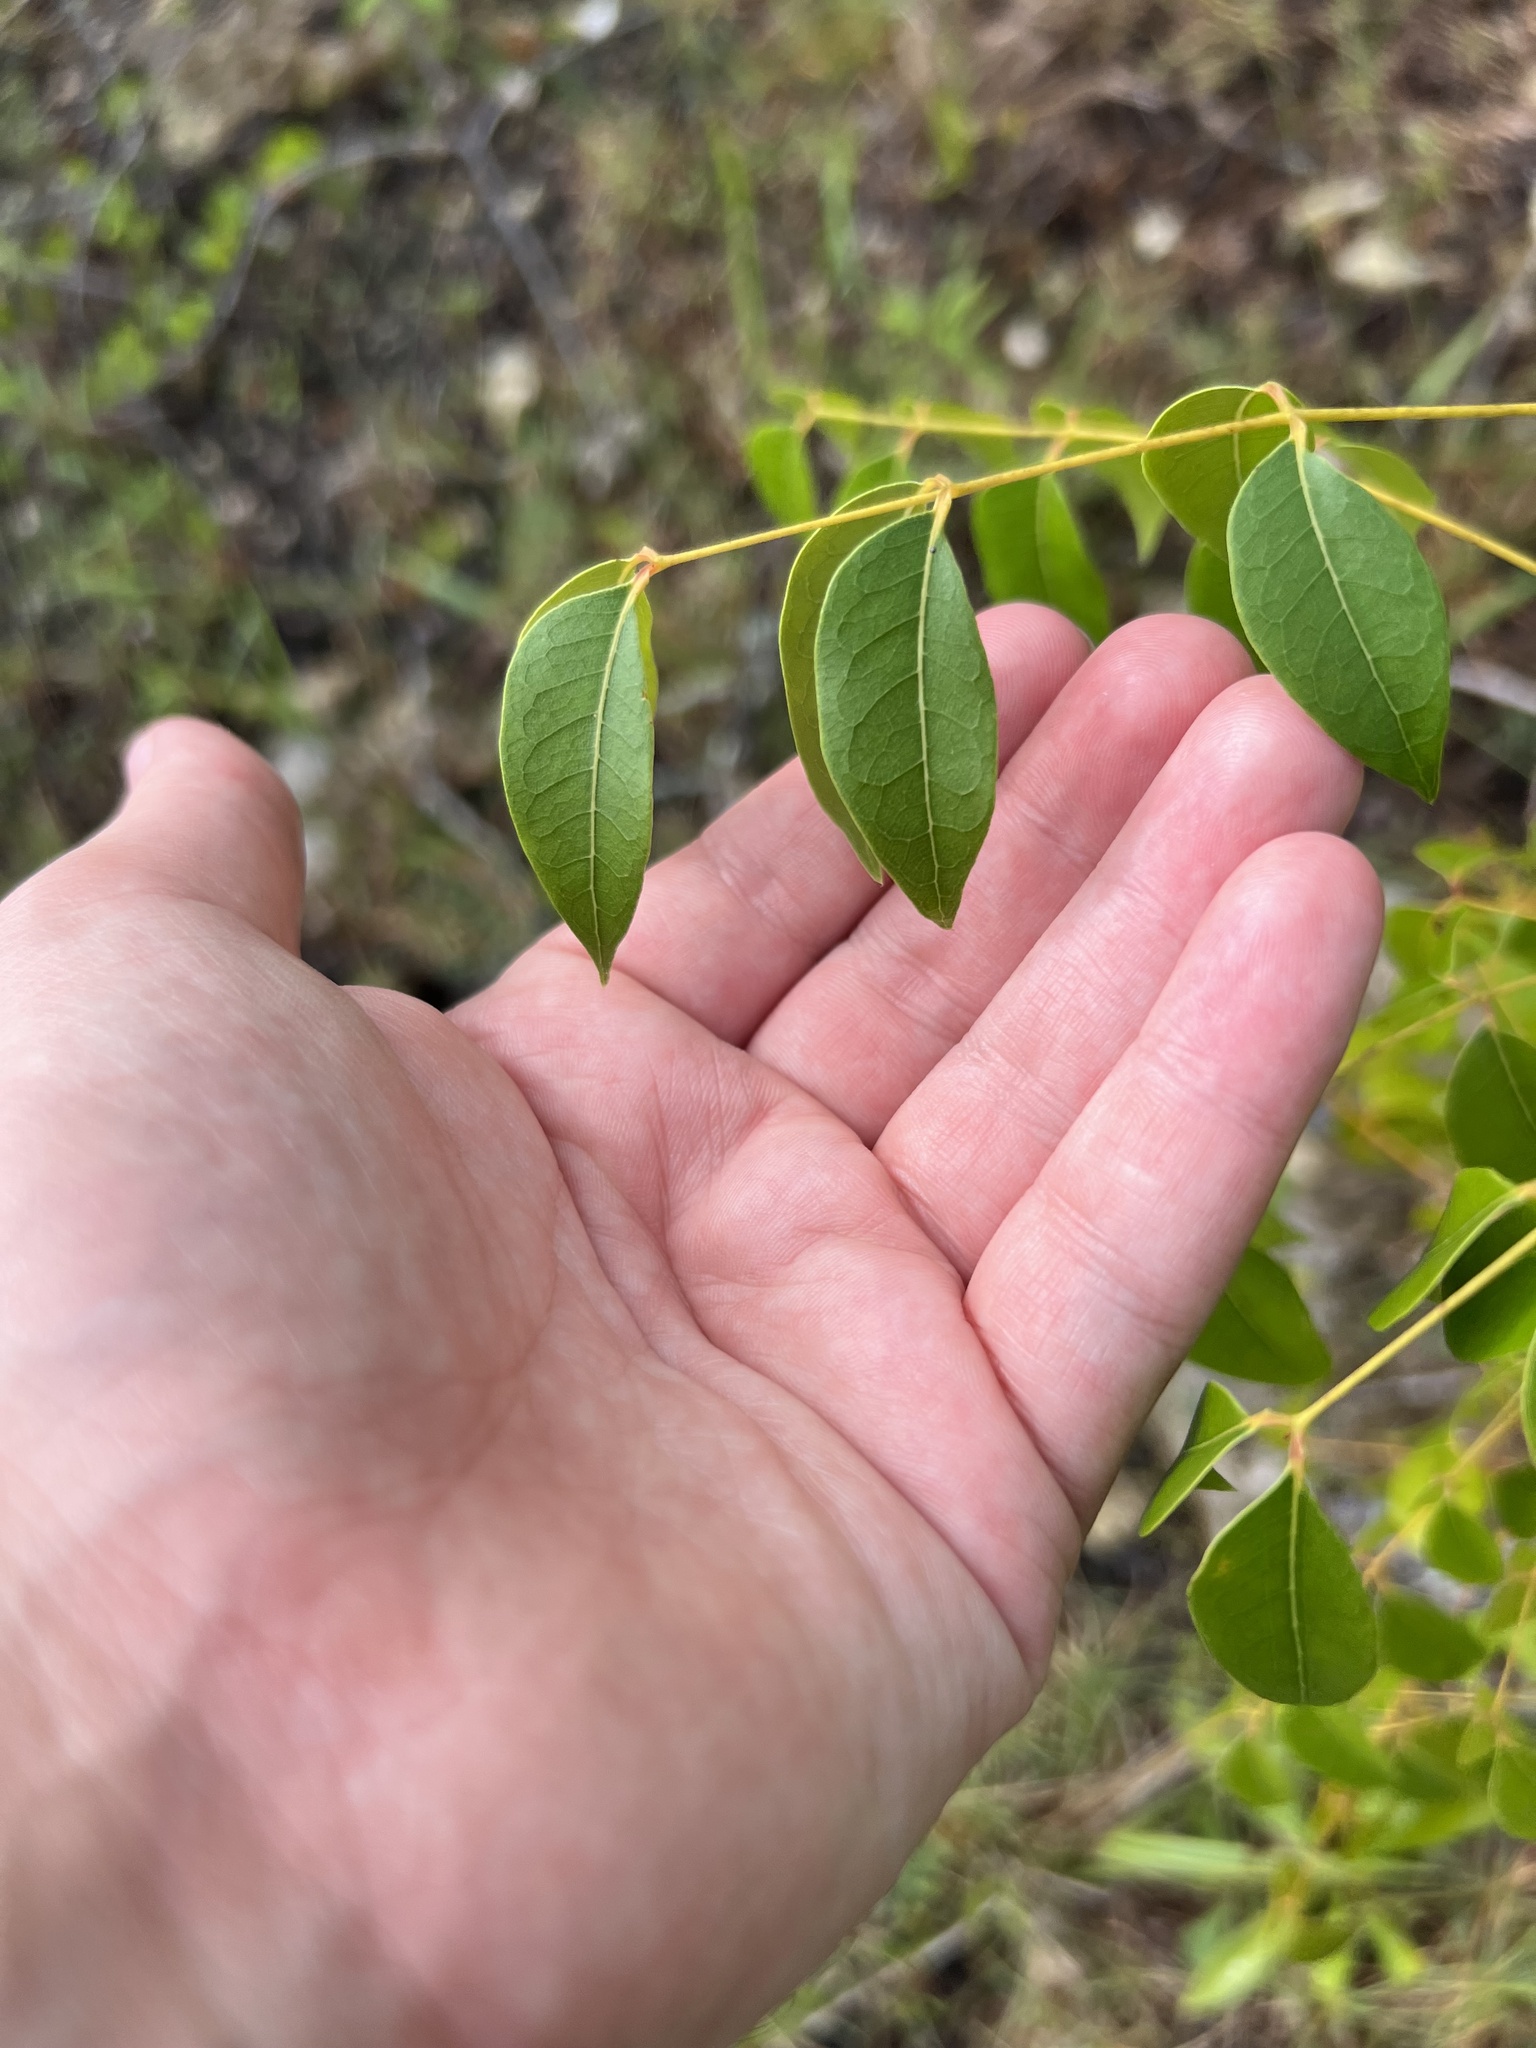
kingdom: Plantae
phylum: Tracheophyta
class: Magnoliopsida
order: Sapindales
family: Meliaceae
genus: Swietenia
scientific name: Swietenia mahagoni
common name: West indian mahogany
